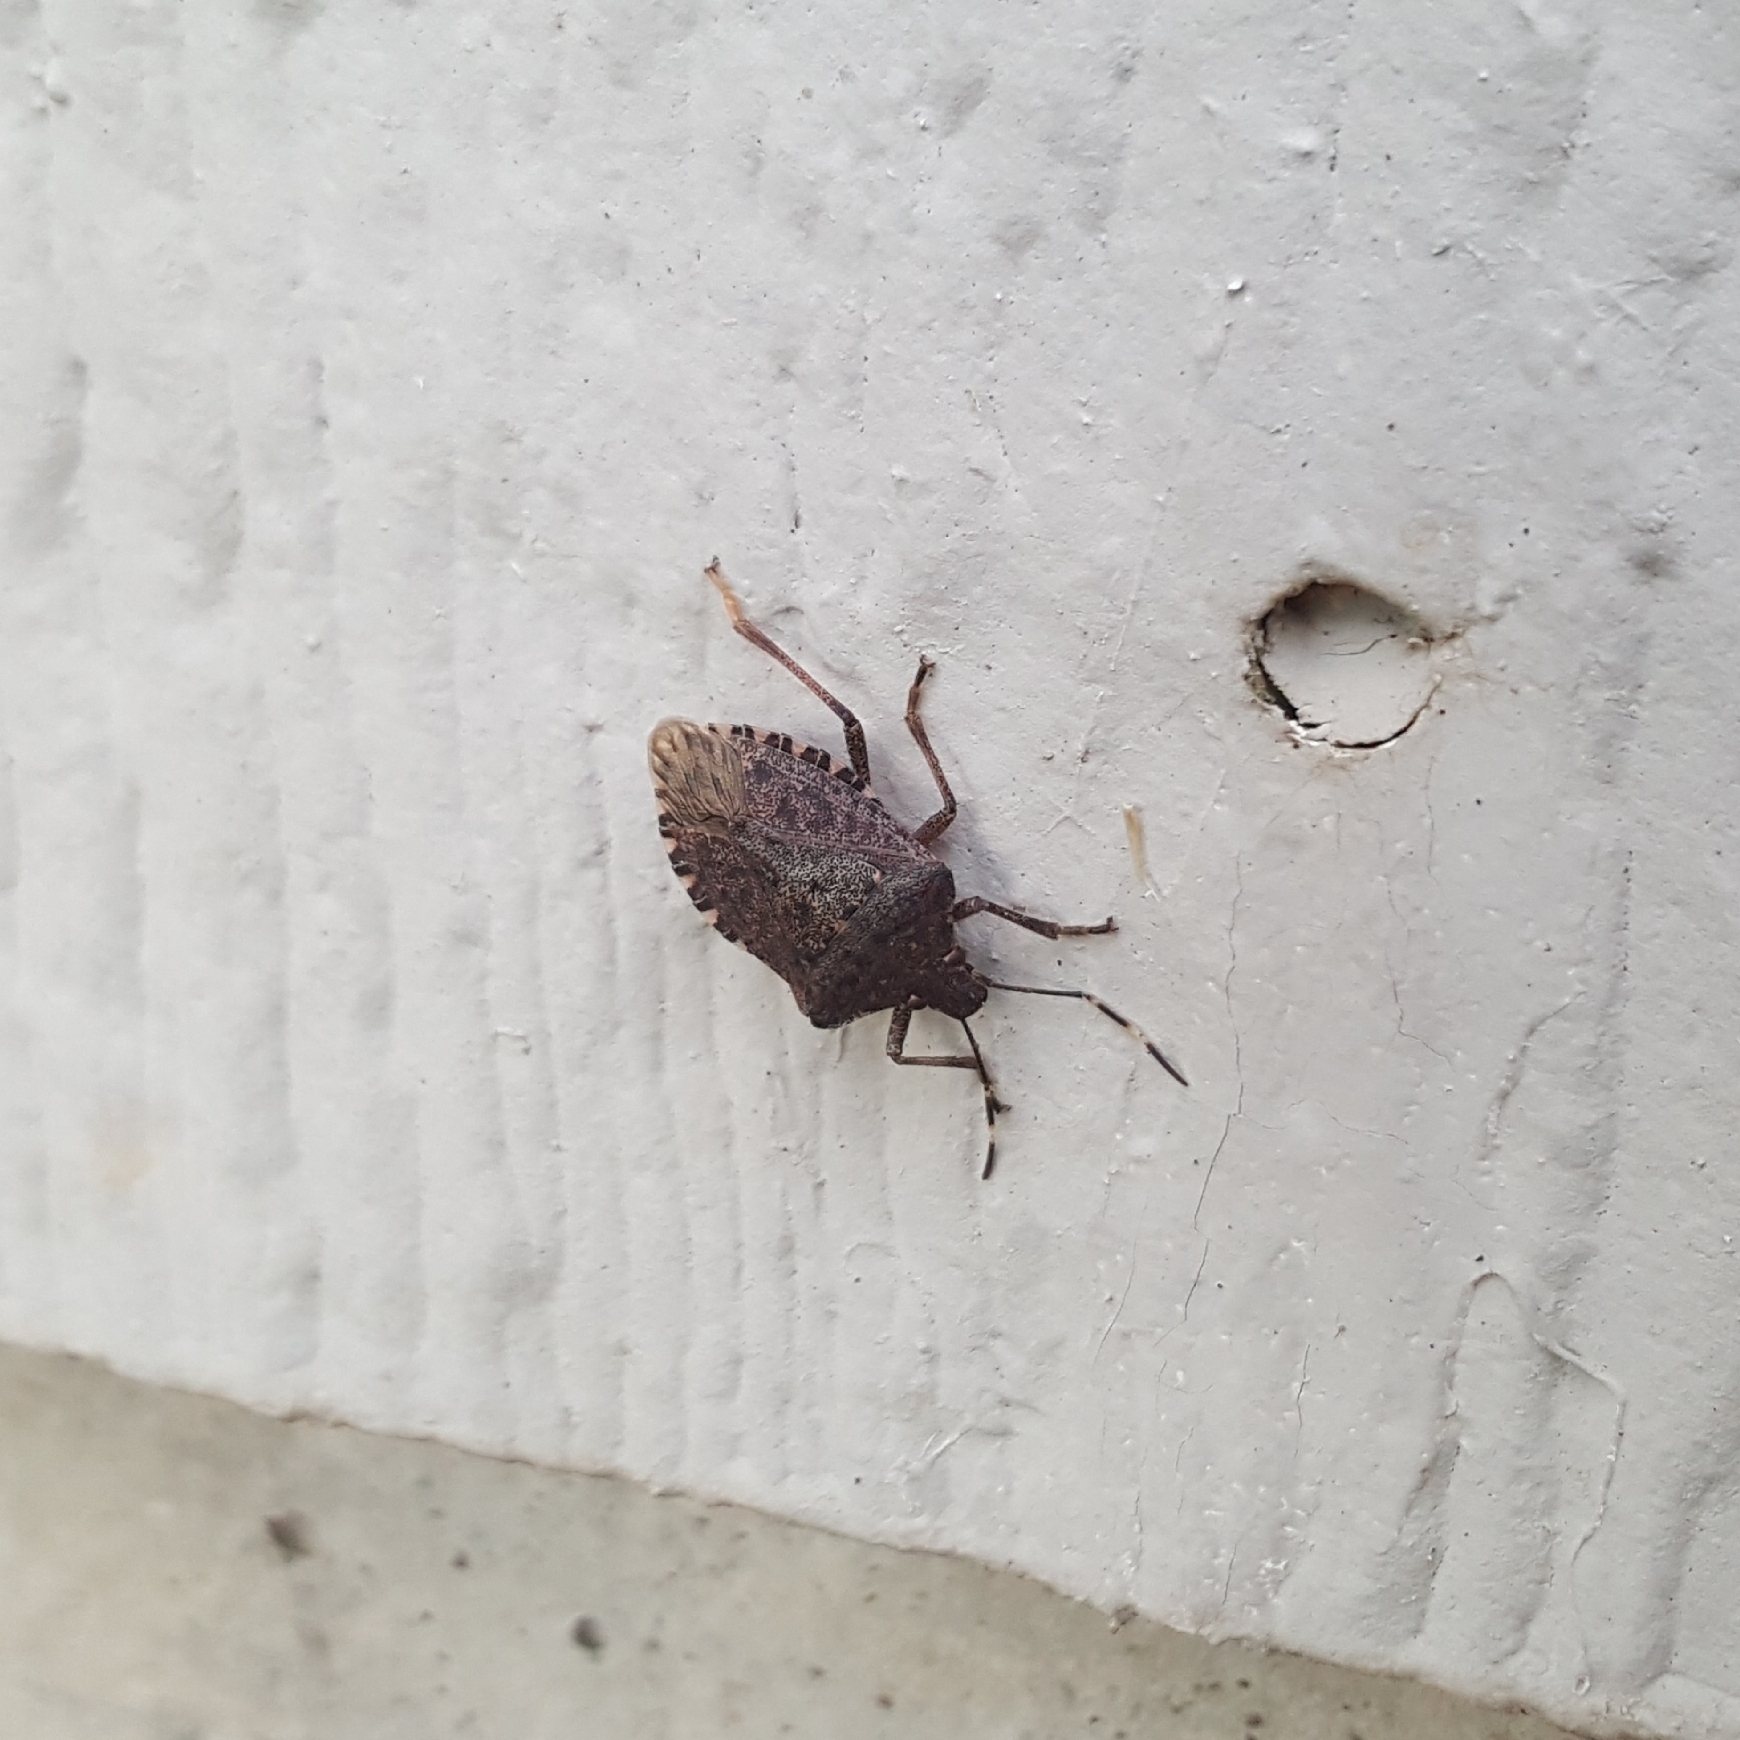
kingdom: Animalia
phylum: Arthropoda
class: Insecta
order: Hemiptera
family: Pentatomidae
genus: Halyomorpha
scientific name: Halyomorpha halys
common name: Brown marmorated stink bug
